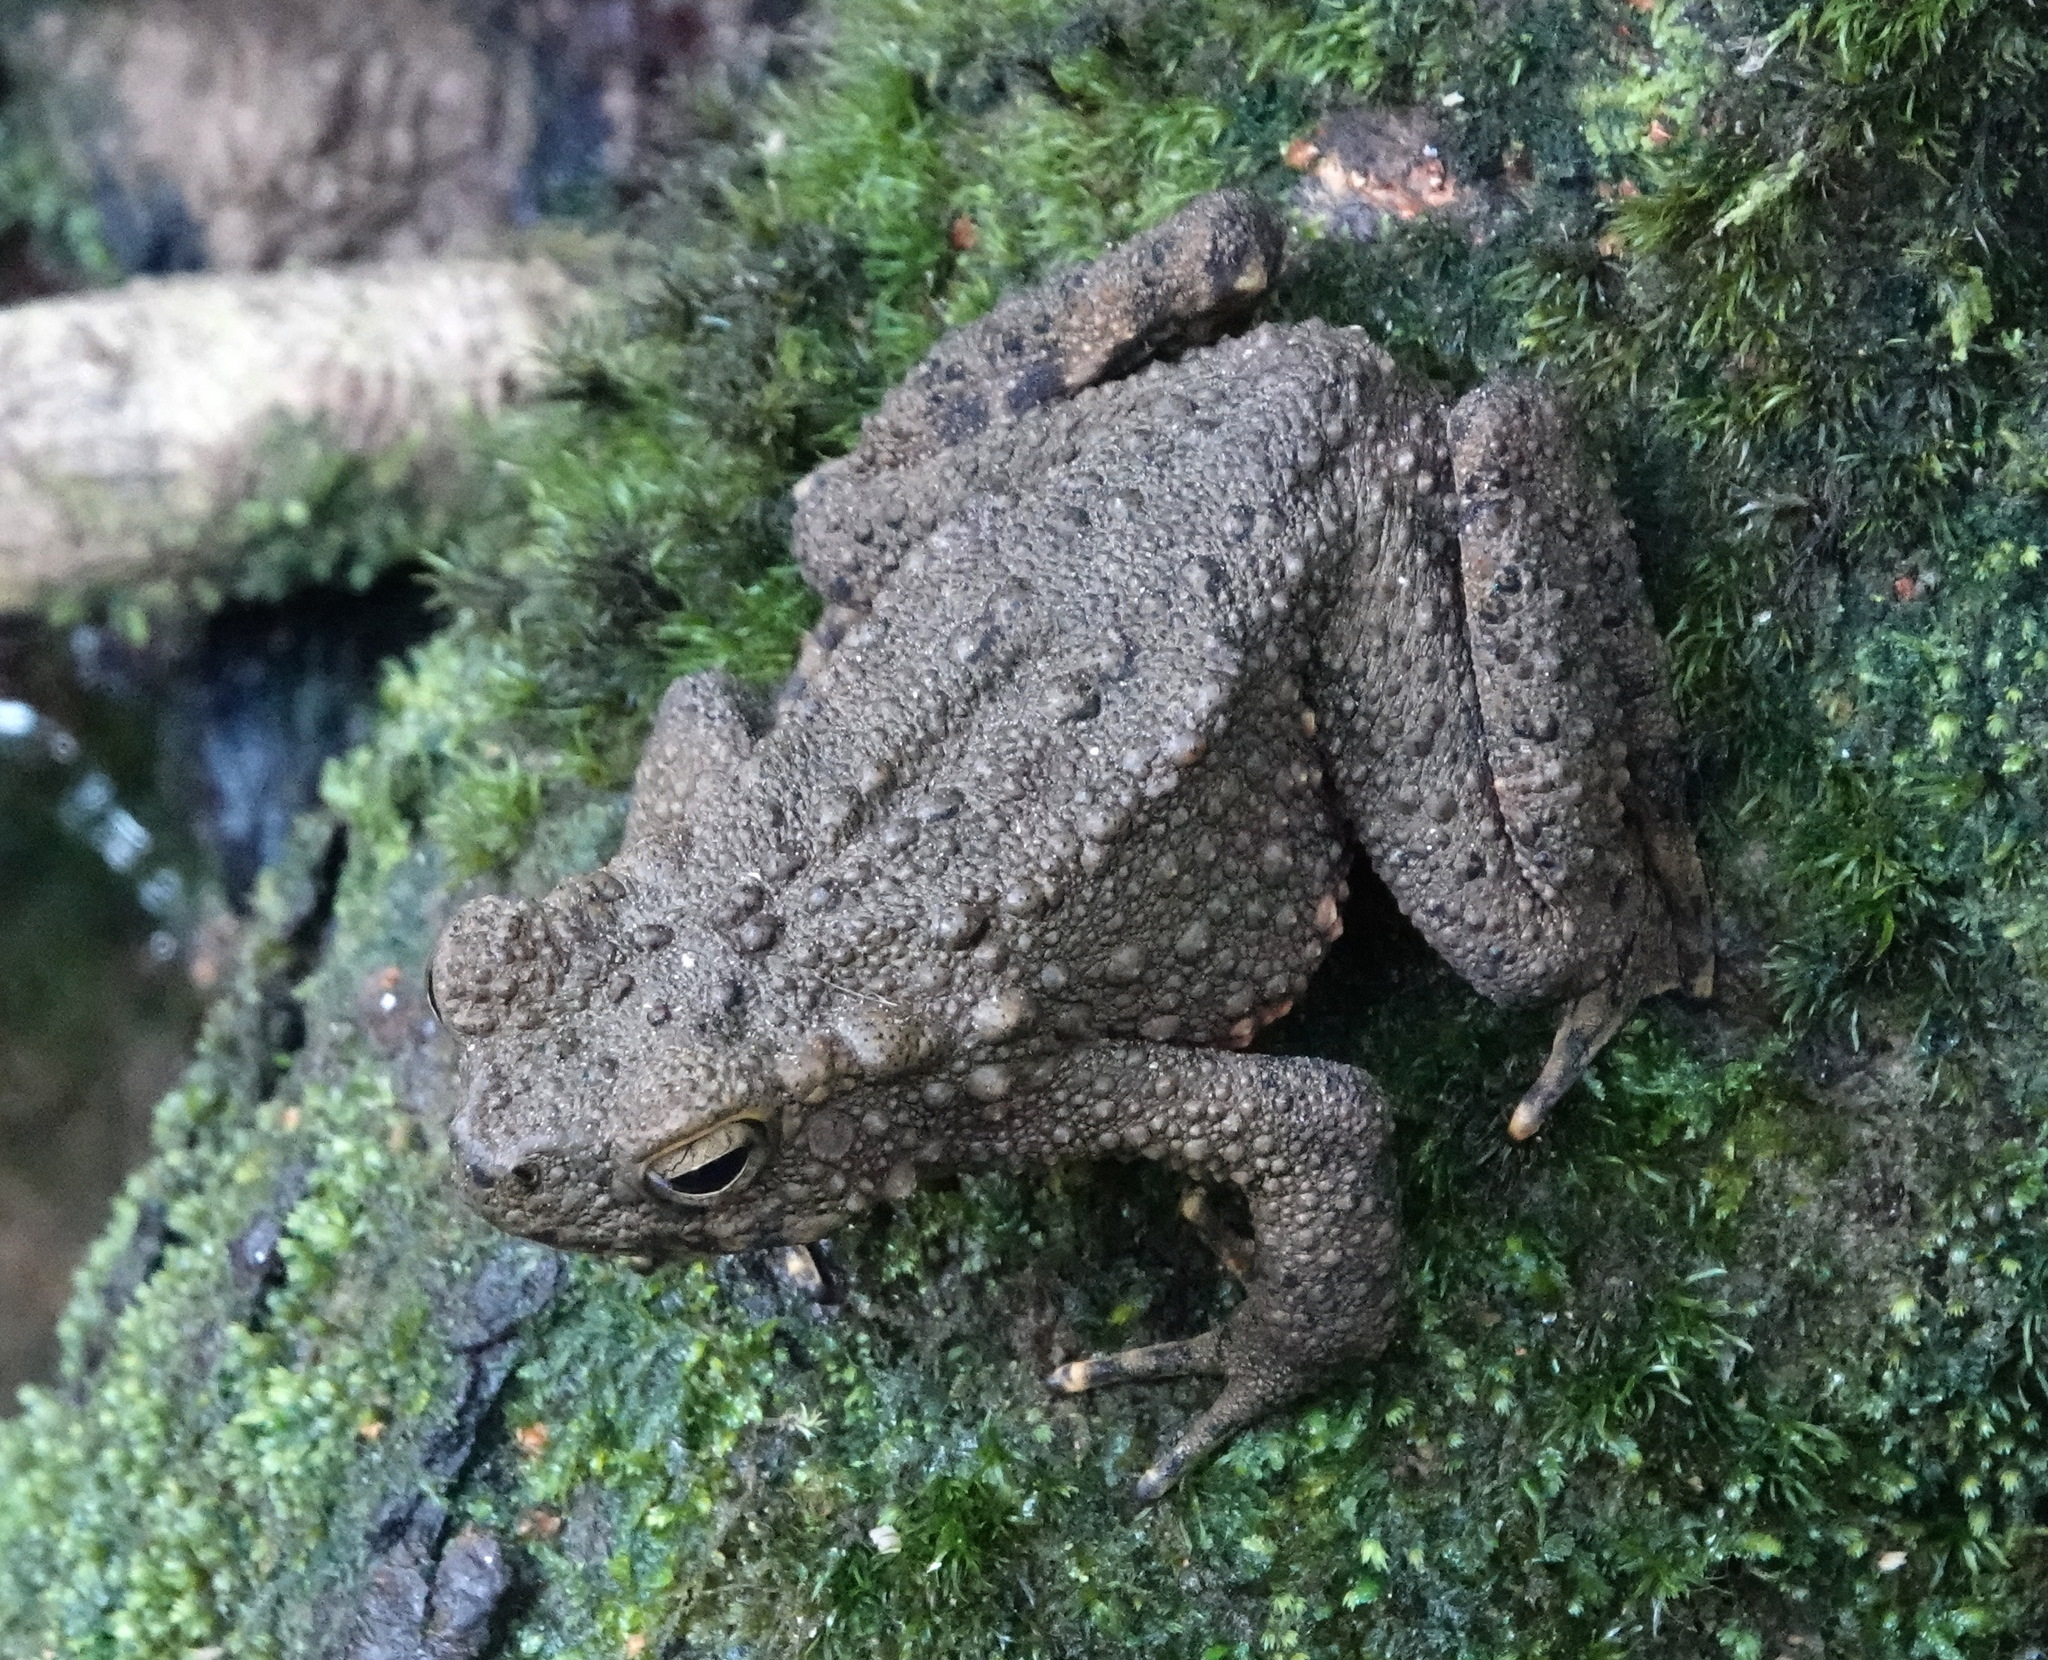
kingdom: Animalia
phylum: Chordata
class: Amphibia
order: Anura
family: Bufonidae
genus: Phrynoidis
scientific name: Phrynoidis asper
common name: Asian giant toad
